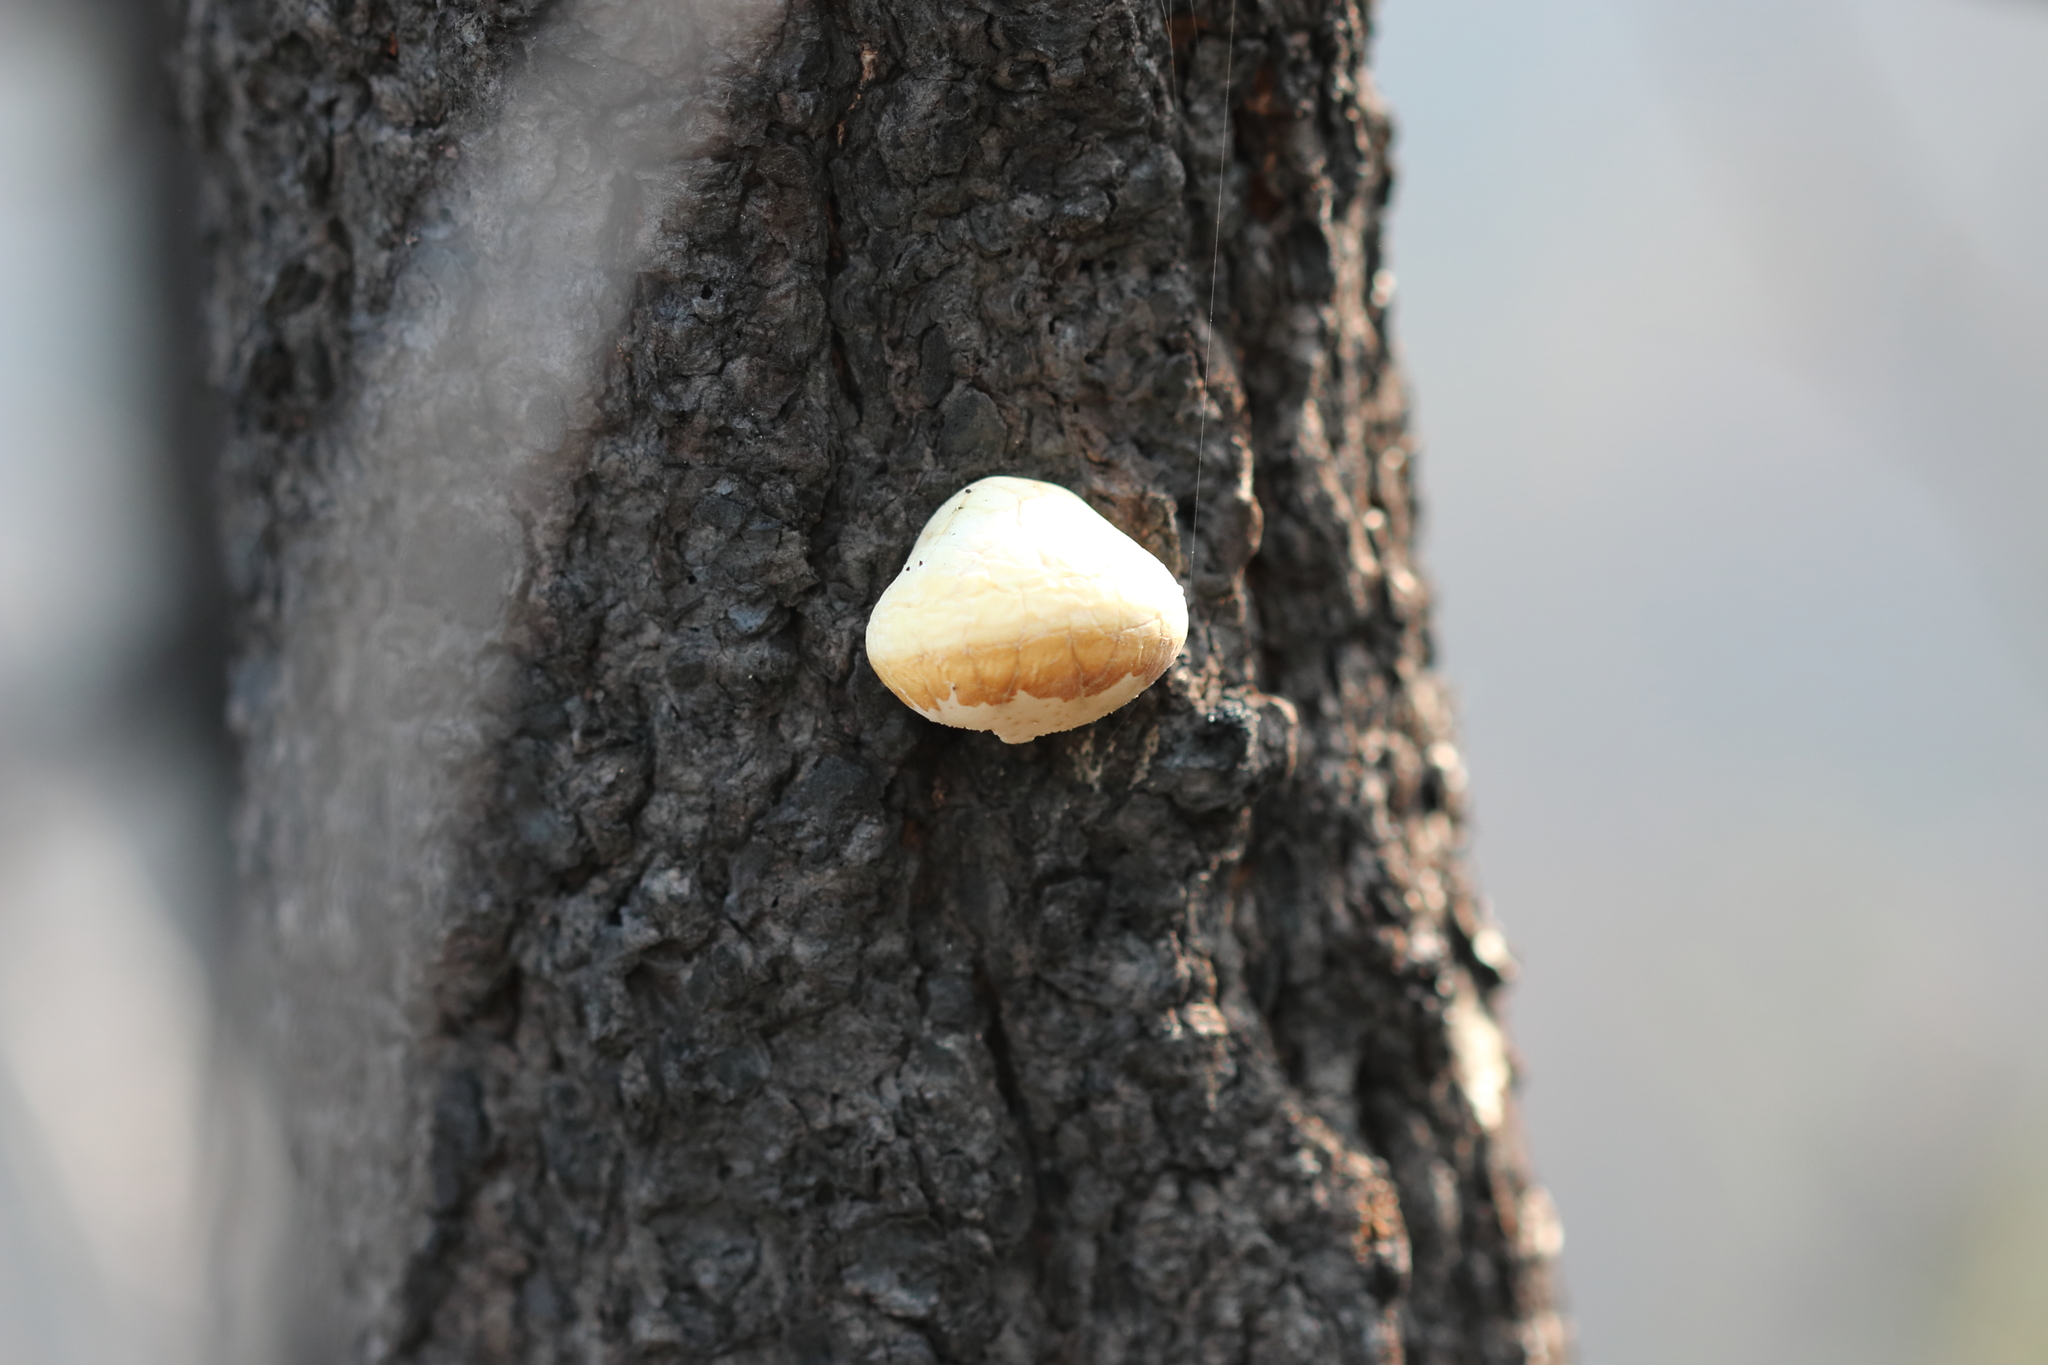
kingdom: Fungi
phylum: Basidiomycota
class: Agaricomycetes
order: Polyporales
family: Polyporaceae
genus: Cryptoporus
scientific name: Cryptoporus volvatus
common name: Veiled polypore
